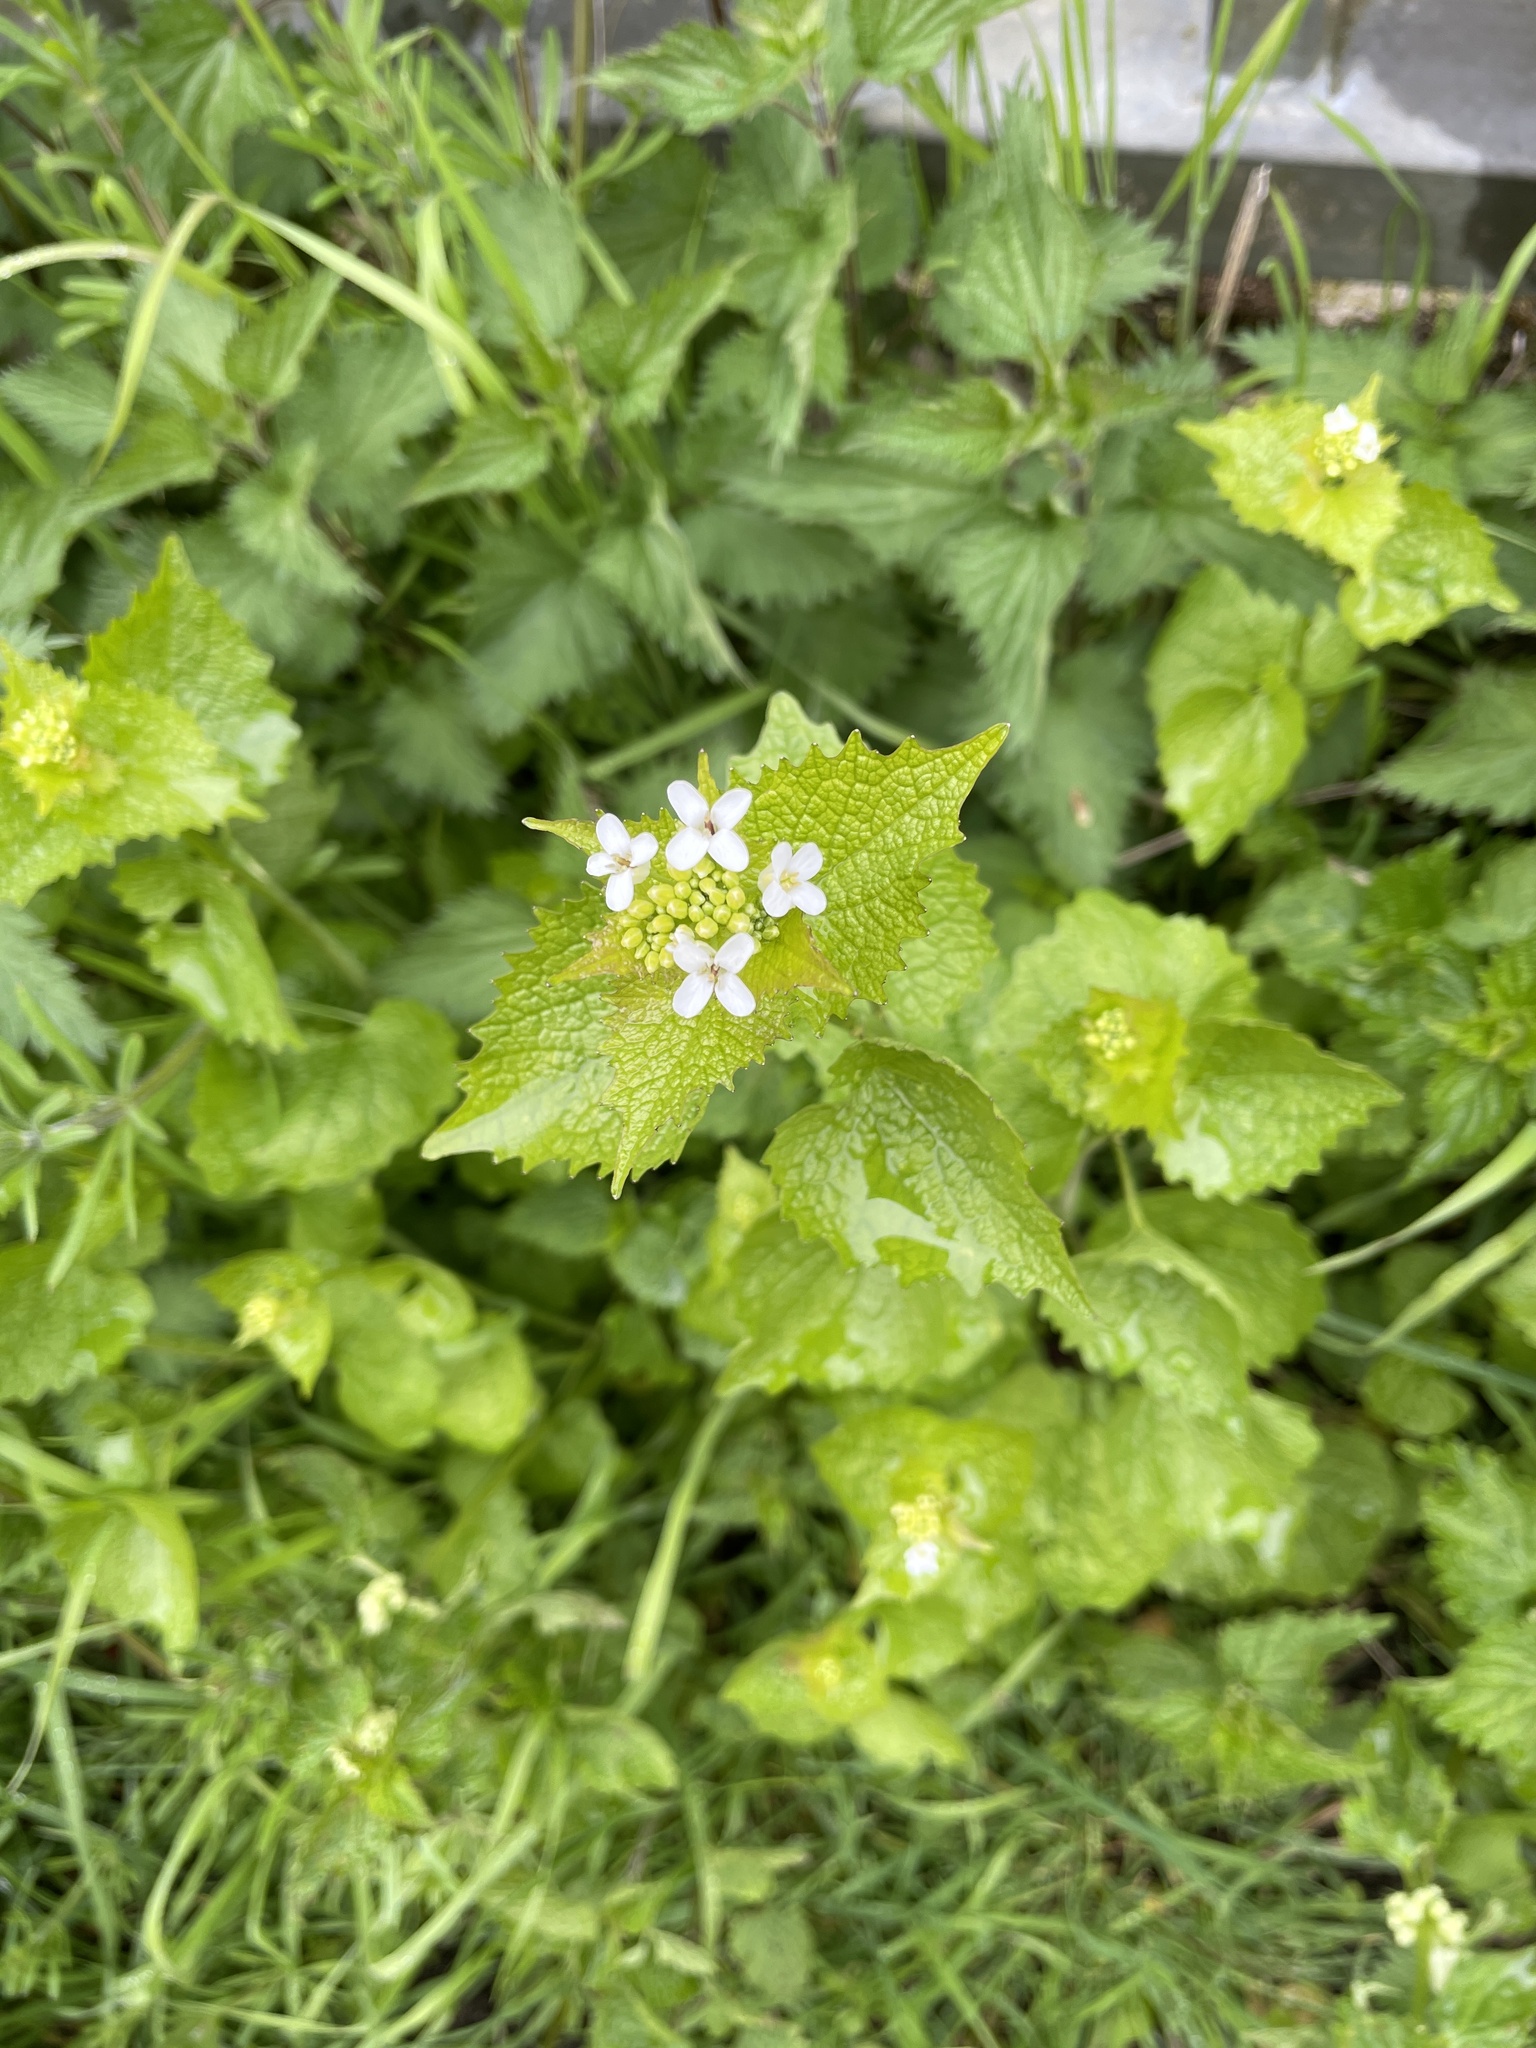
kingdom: Plantae
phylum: Tracheophyta
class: Magnoliopsida
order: Brassicales
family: Brassicaceae
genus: Alliaria
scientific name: Alliaria petiolata
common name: Garlic mustard
